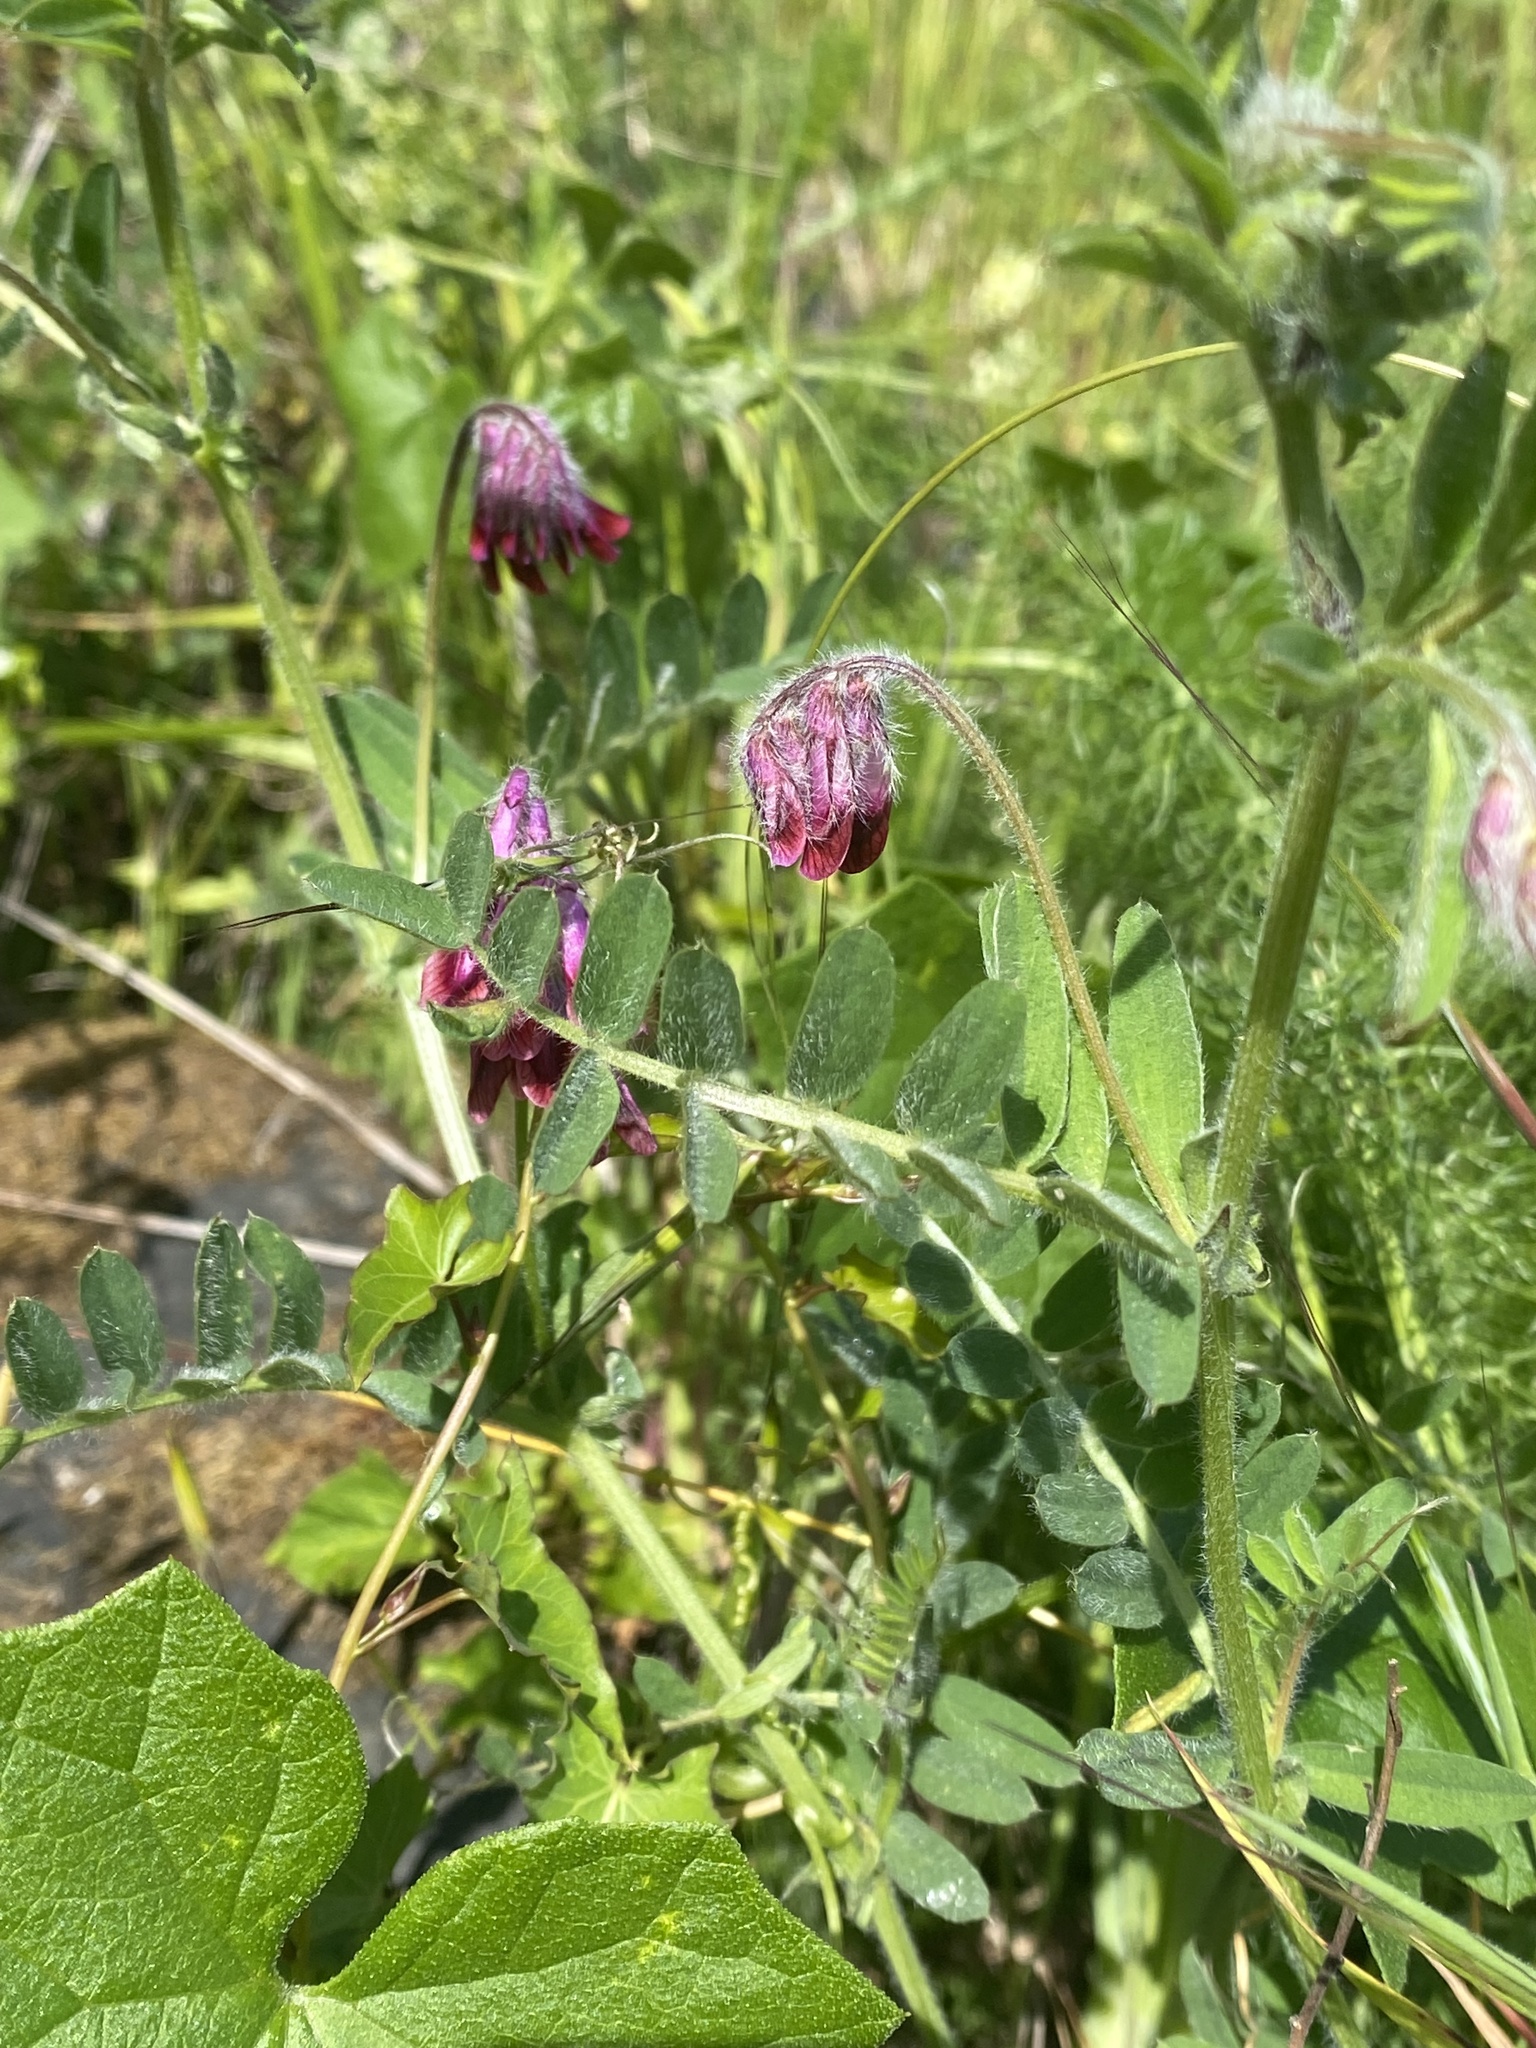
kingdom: Plantae
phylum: Tracheophyta
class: Magnoliopsida
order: Fabales
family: Fabaceae
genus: Vicia
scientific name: Vicia benghalensis
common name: Purple vetch
